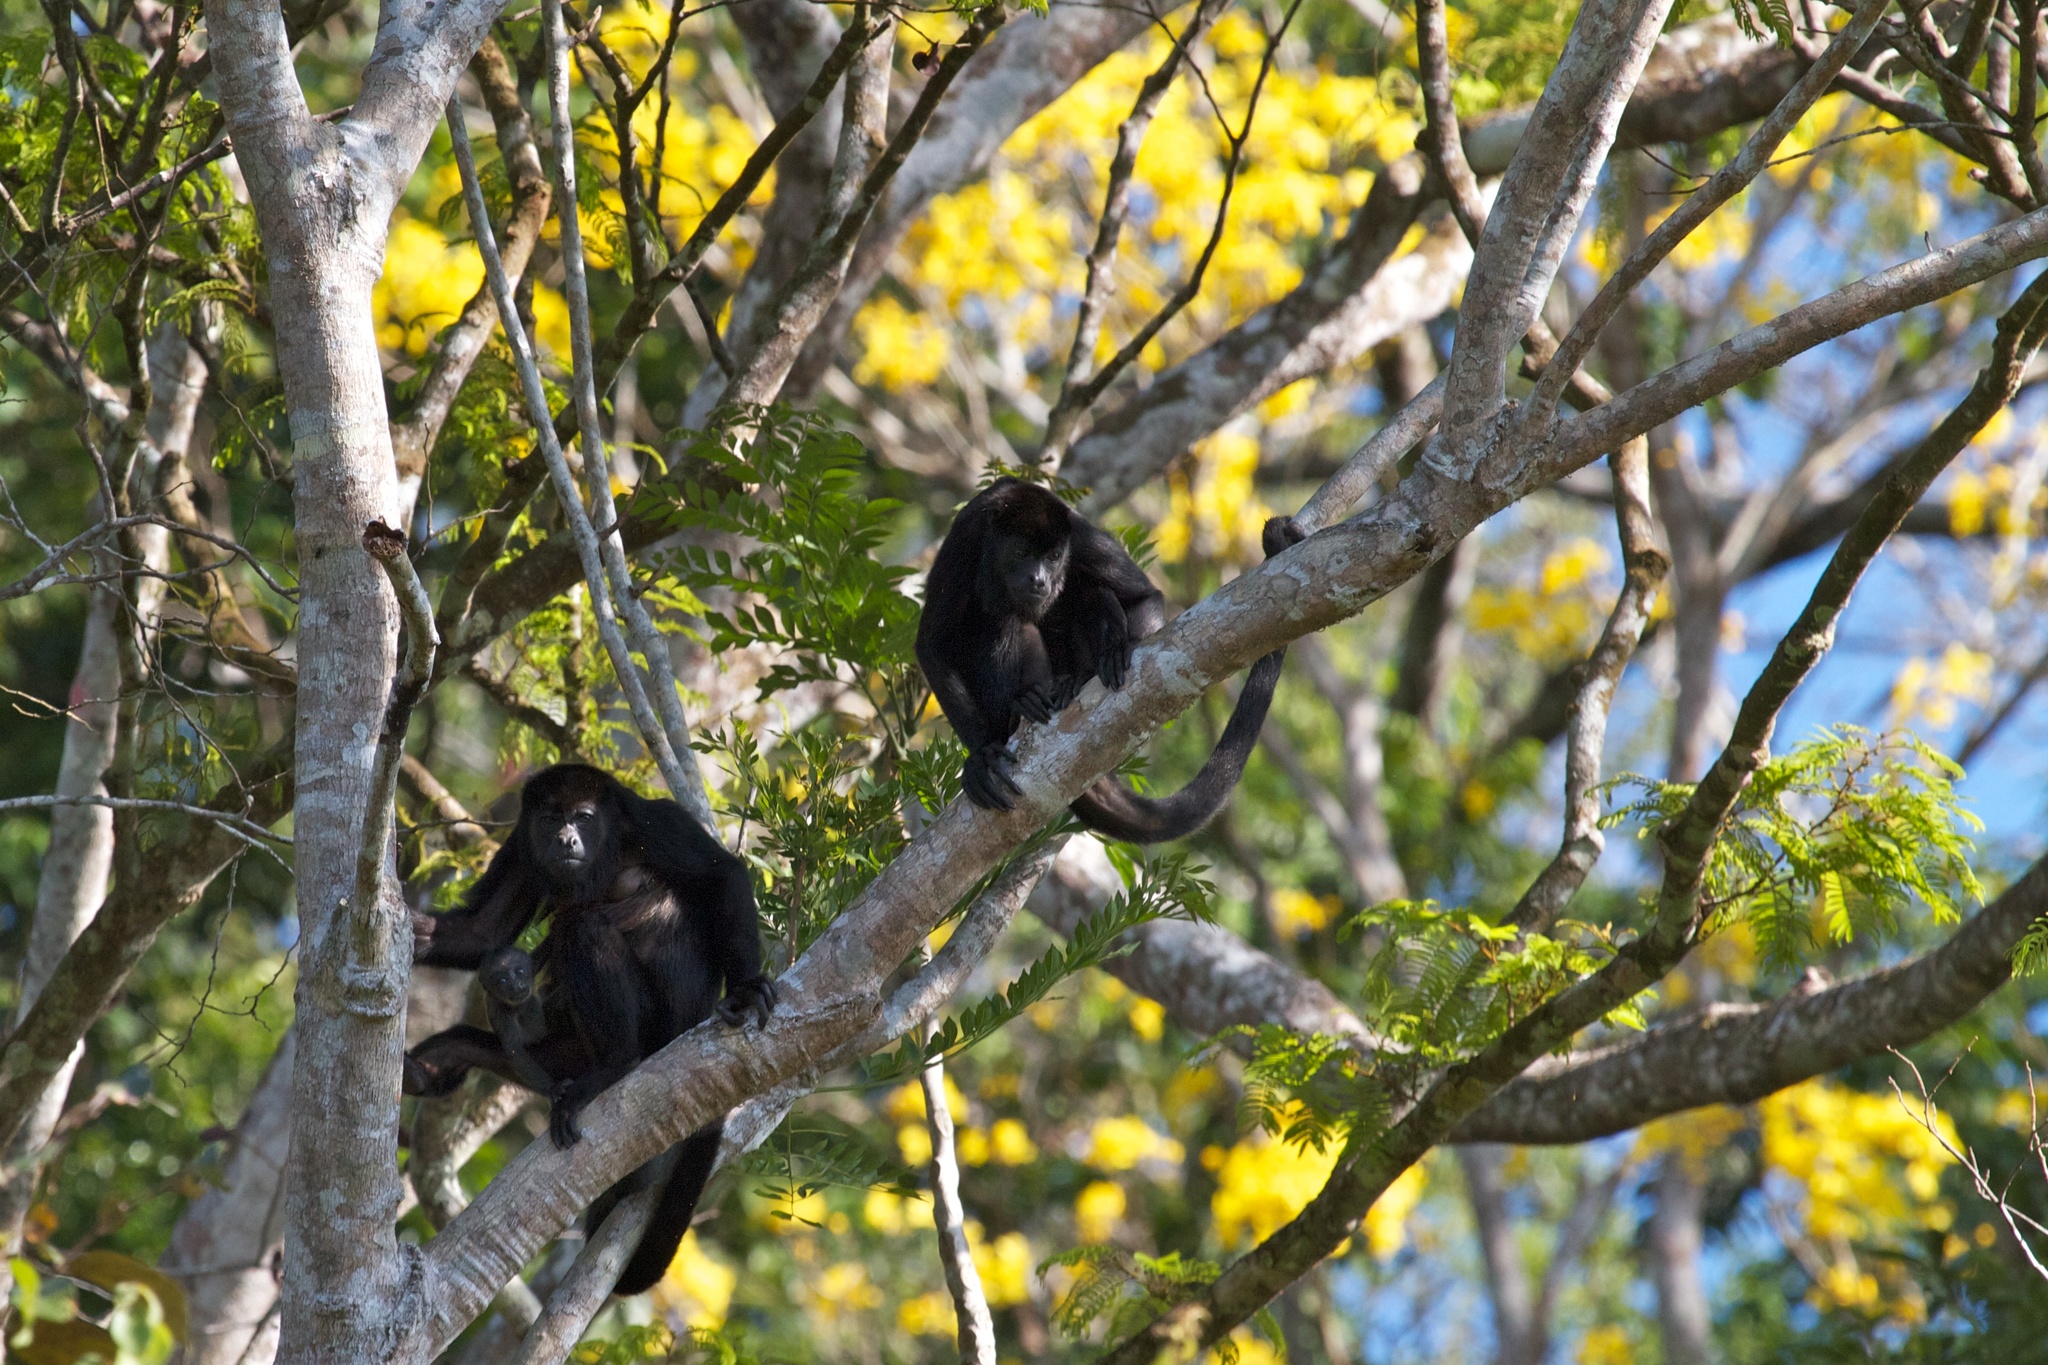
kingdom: Animalia
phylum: Chordata
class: Mammalia
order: Primates
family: Atelidae
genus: Alouatta
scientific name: Alouatta palliata
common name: Mantled howler
